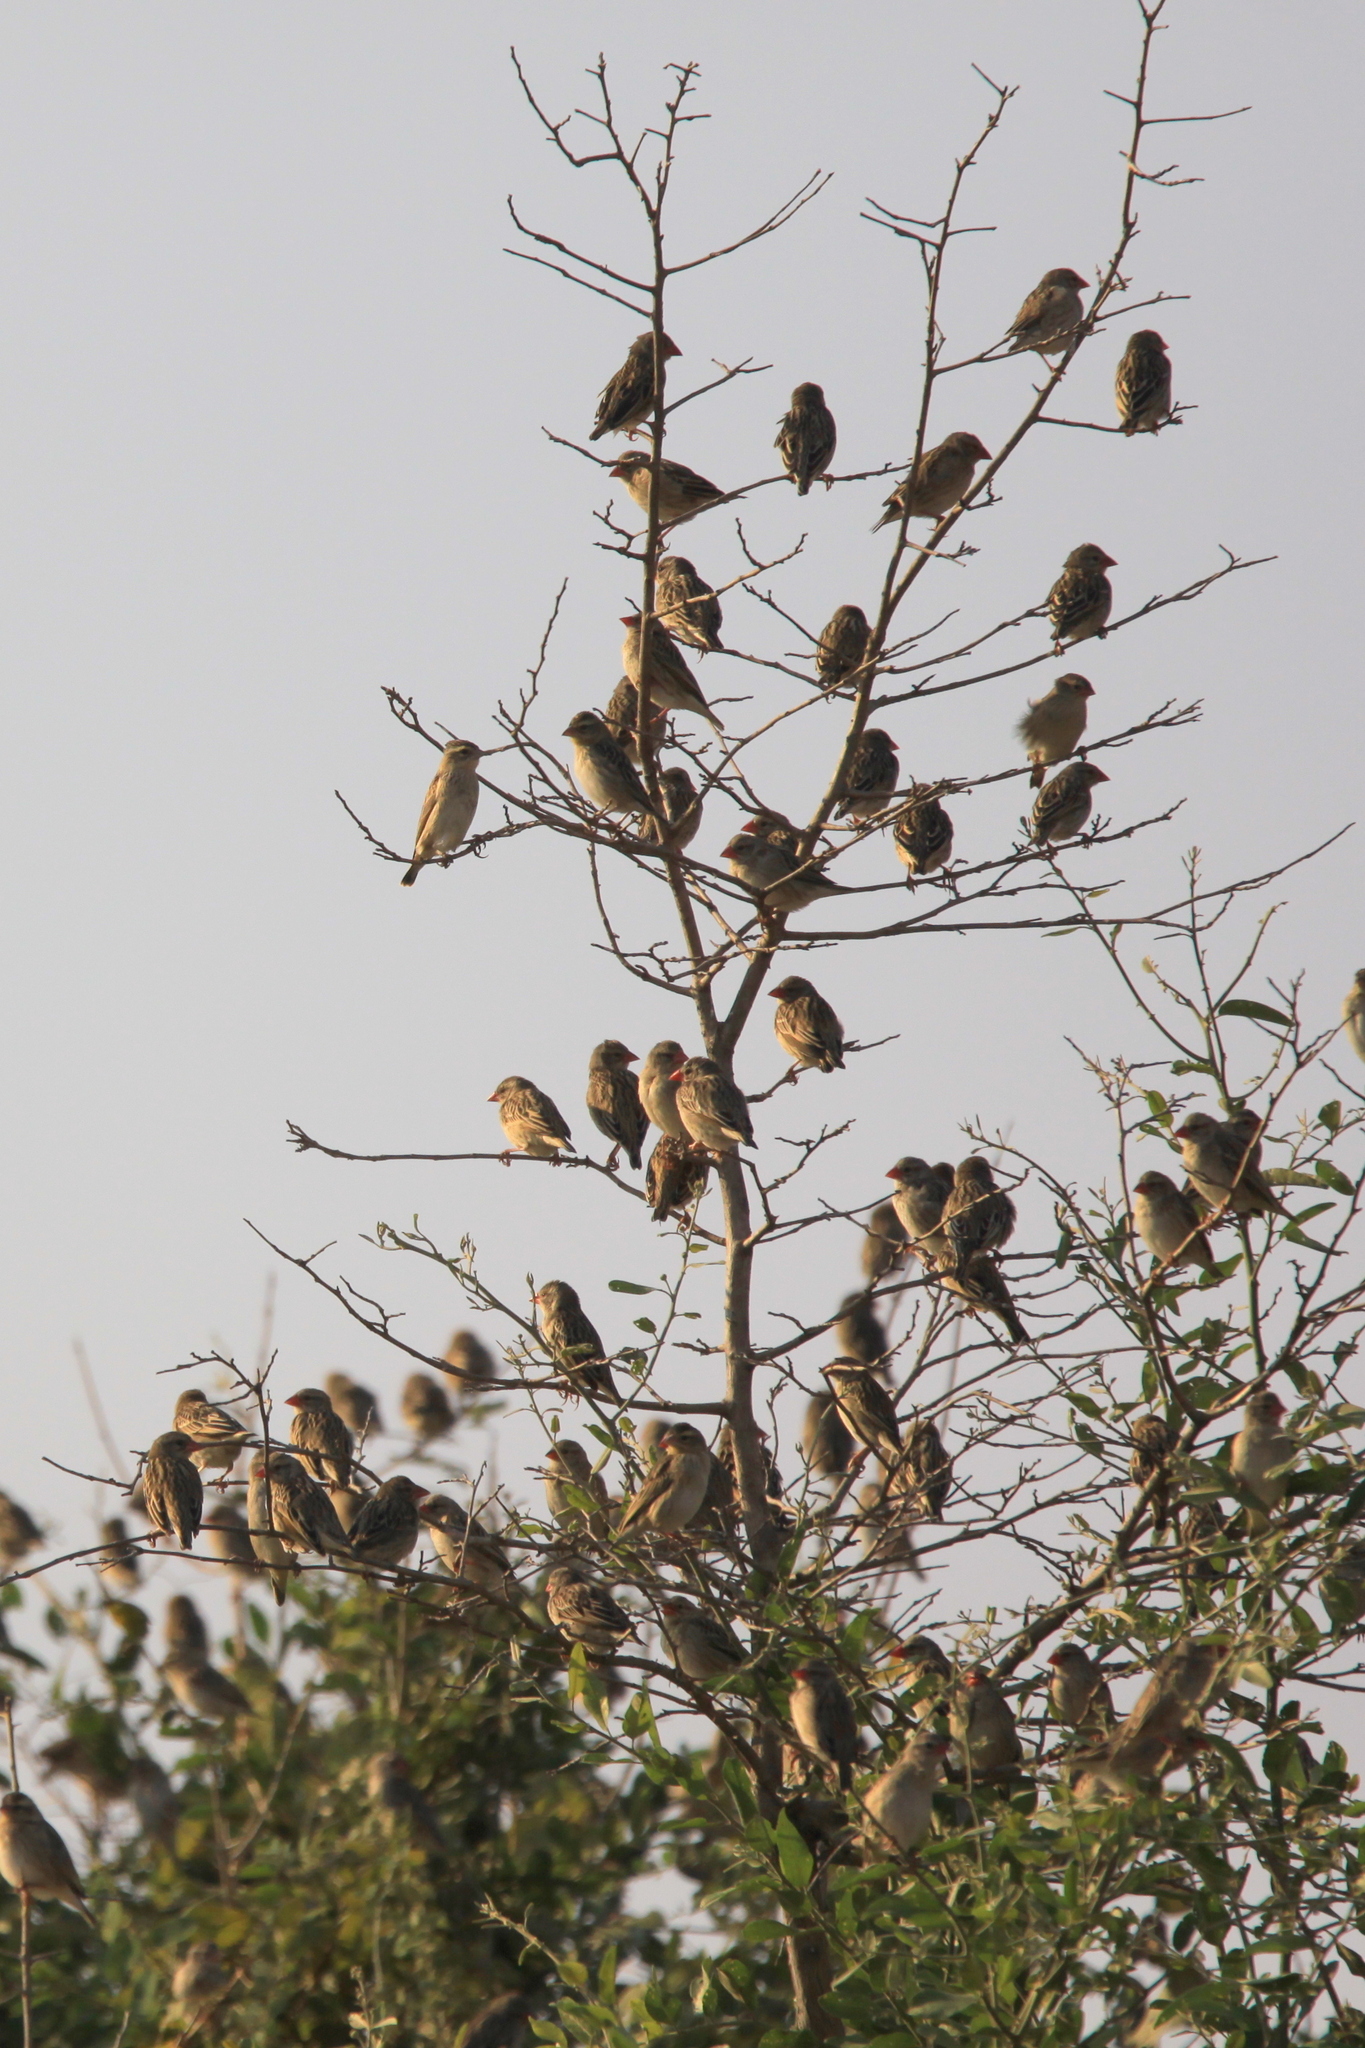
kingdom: Animalia
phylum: Chordata
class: Aves
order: Passeriformes
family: Ploceidae
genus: Quelea
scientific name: Quelea quelea
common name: Red-billed quelea
